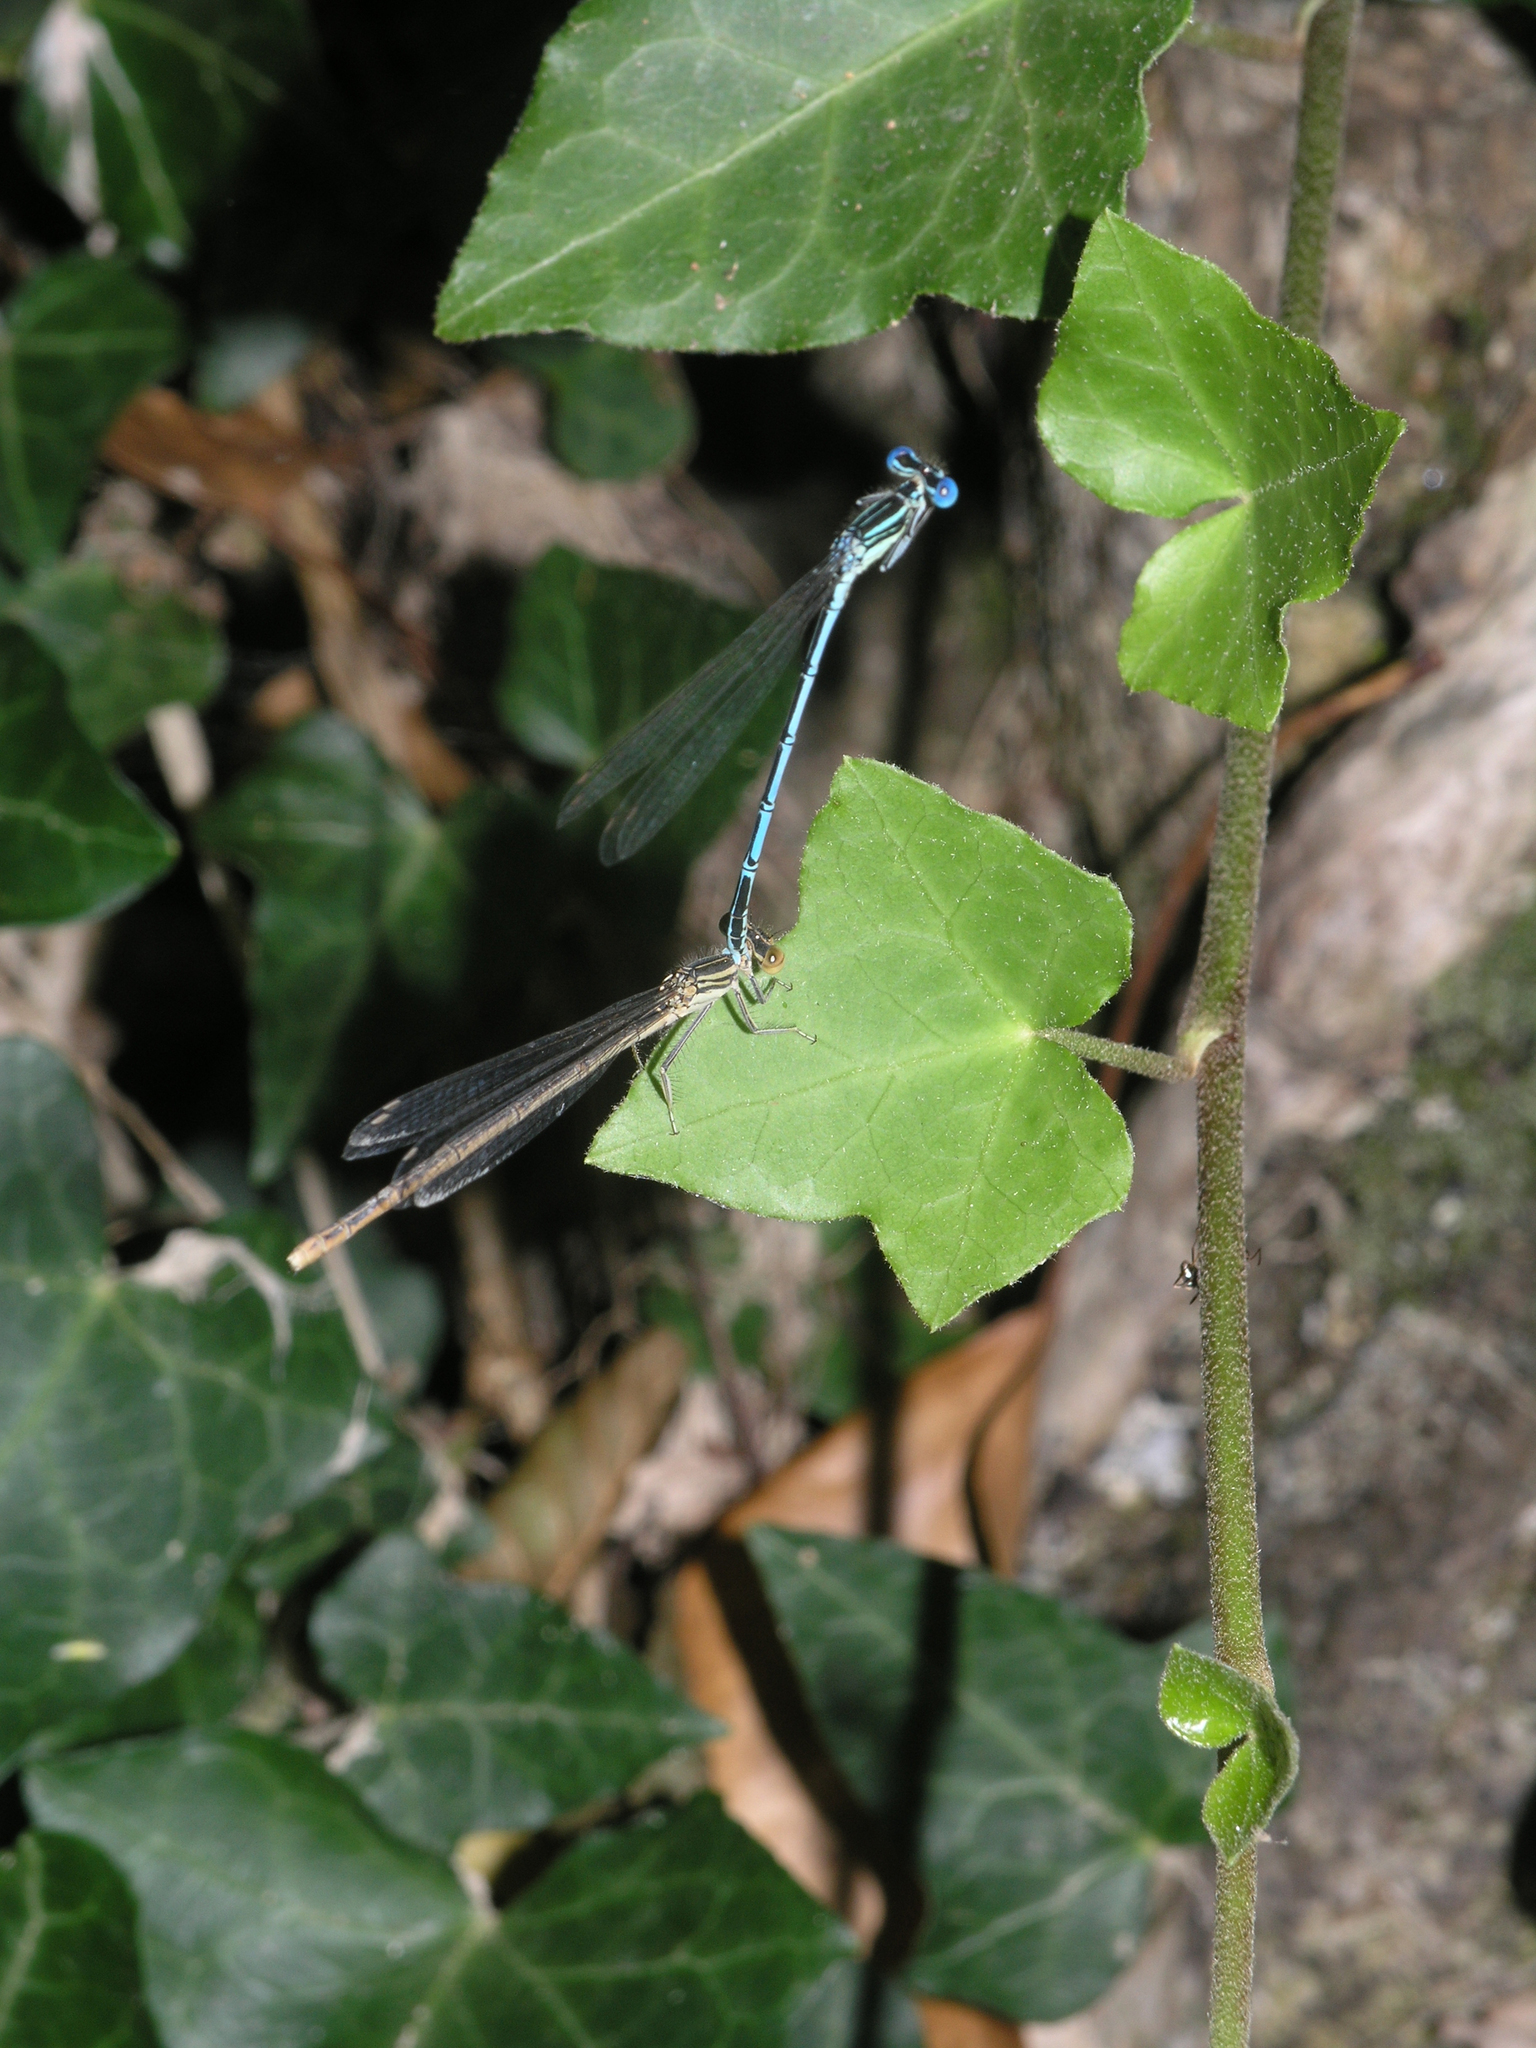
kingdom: Plantae
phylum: Tracheophyta
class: Magnoliopsida
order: Apiales
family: Araliaceae
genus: Hedera
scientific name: Hedera helix
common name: Ivy
